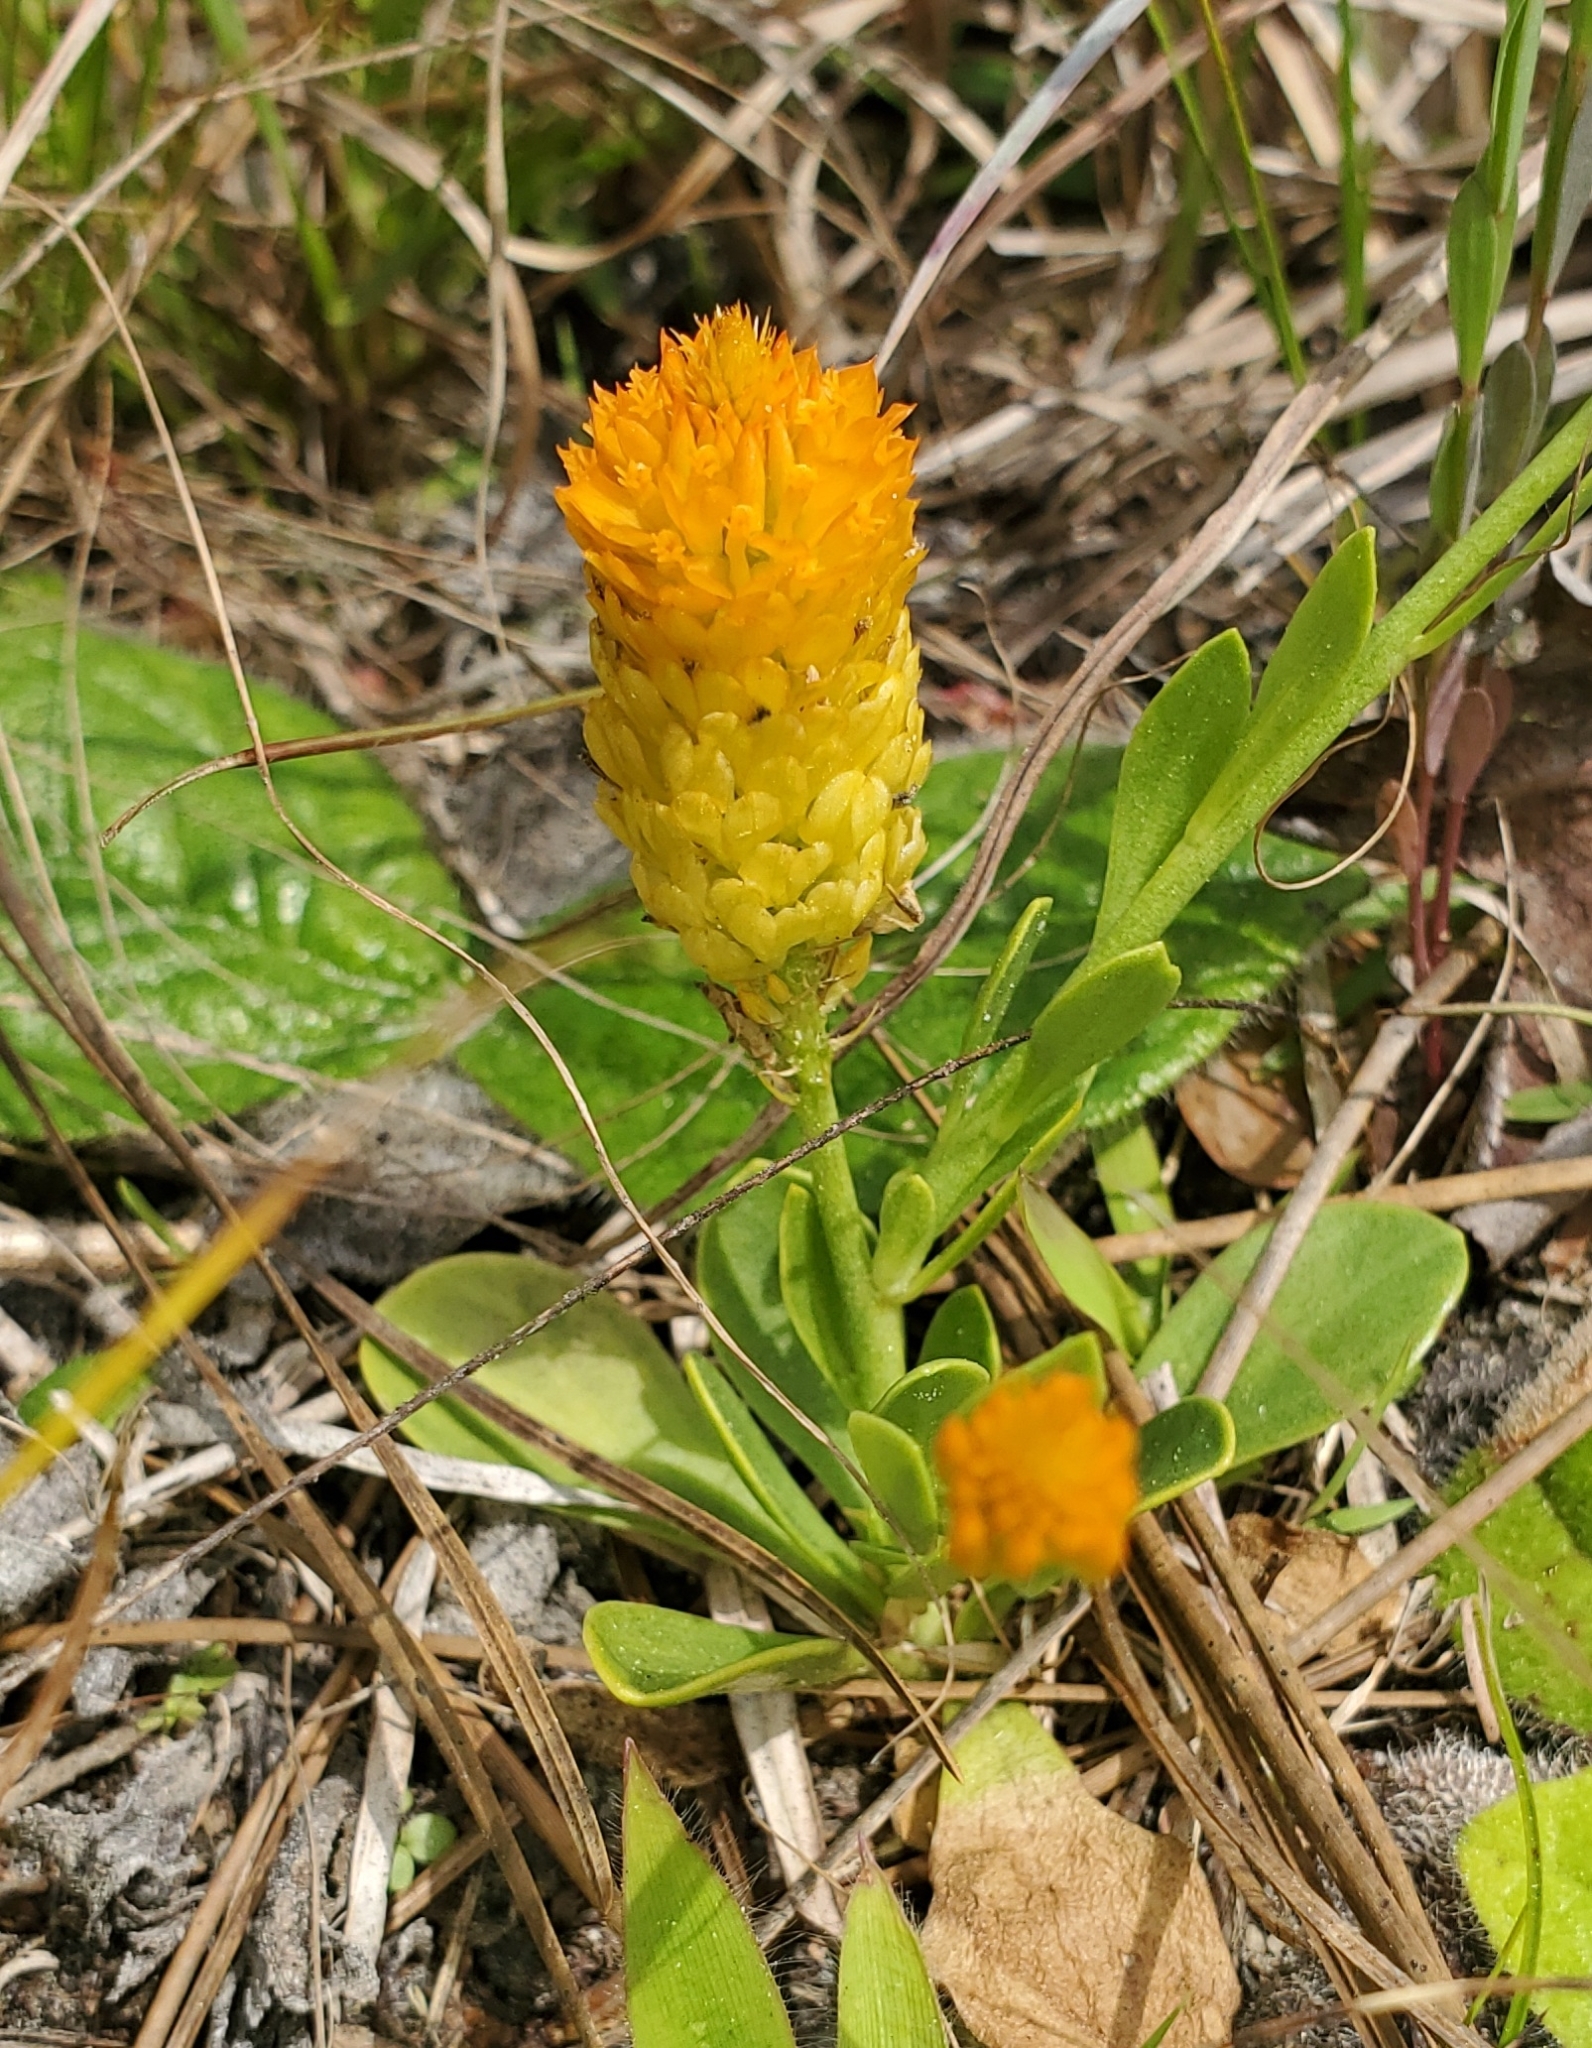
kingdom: Plantae
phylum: Tracheophyta
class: Magnoliopsida
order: Fabales
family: Polygalaceae
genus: Polygala
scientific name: Polygala lutea
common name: Orange milkwort
